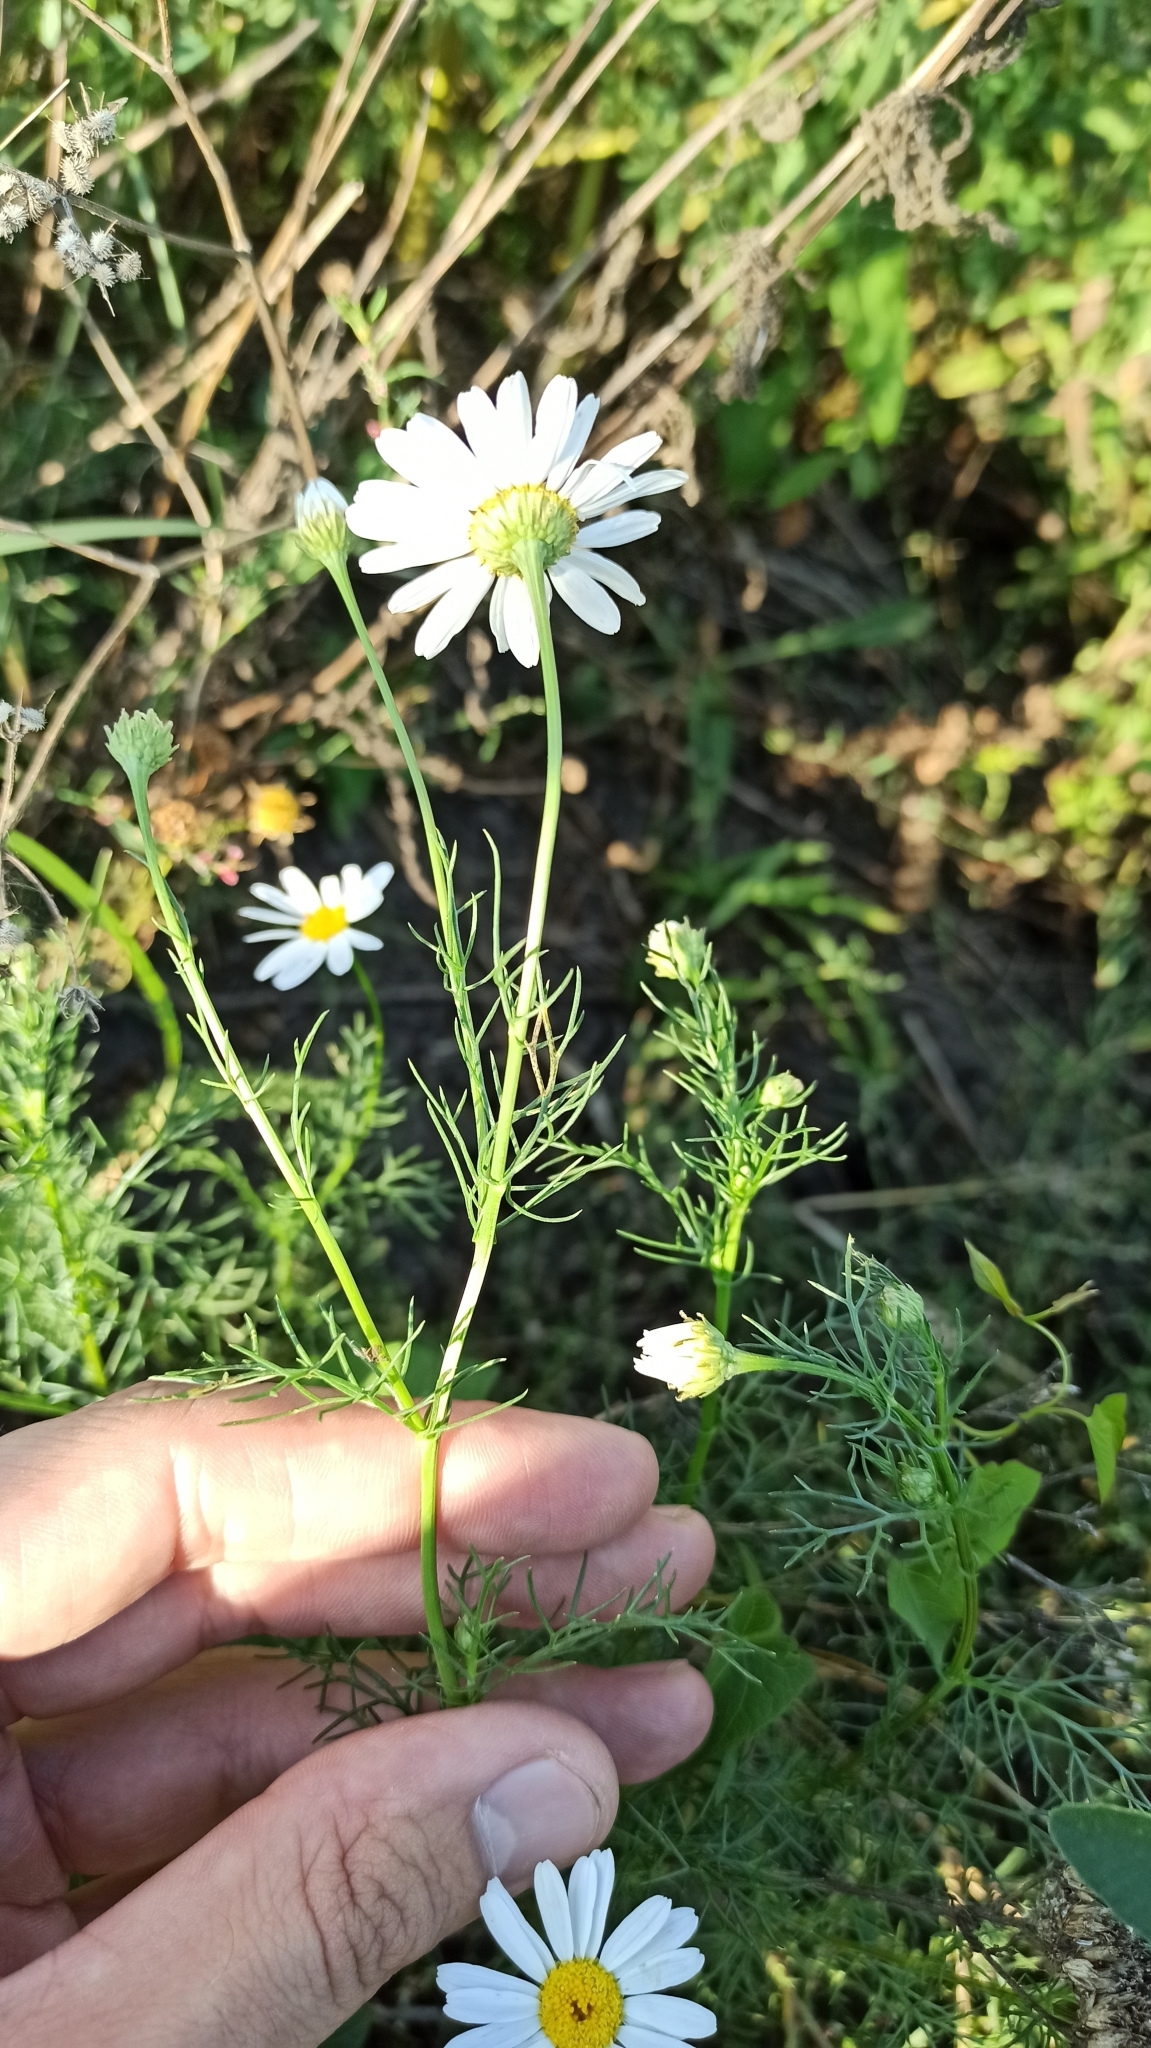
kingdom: Plantae
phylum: Tracheophyta
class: Magnoliopsida
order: Asterales
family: Asteraceae
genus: Tripleurospermum
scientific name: Tripleurospermum inodorum
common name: Scentless mayweed
